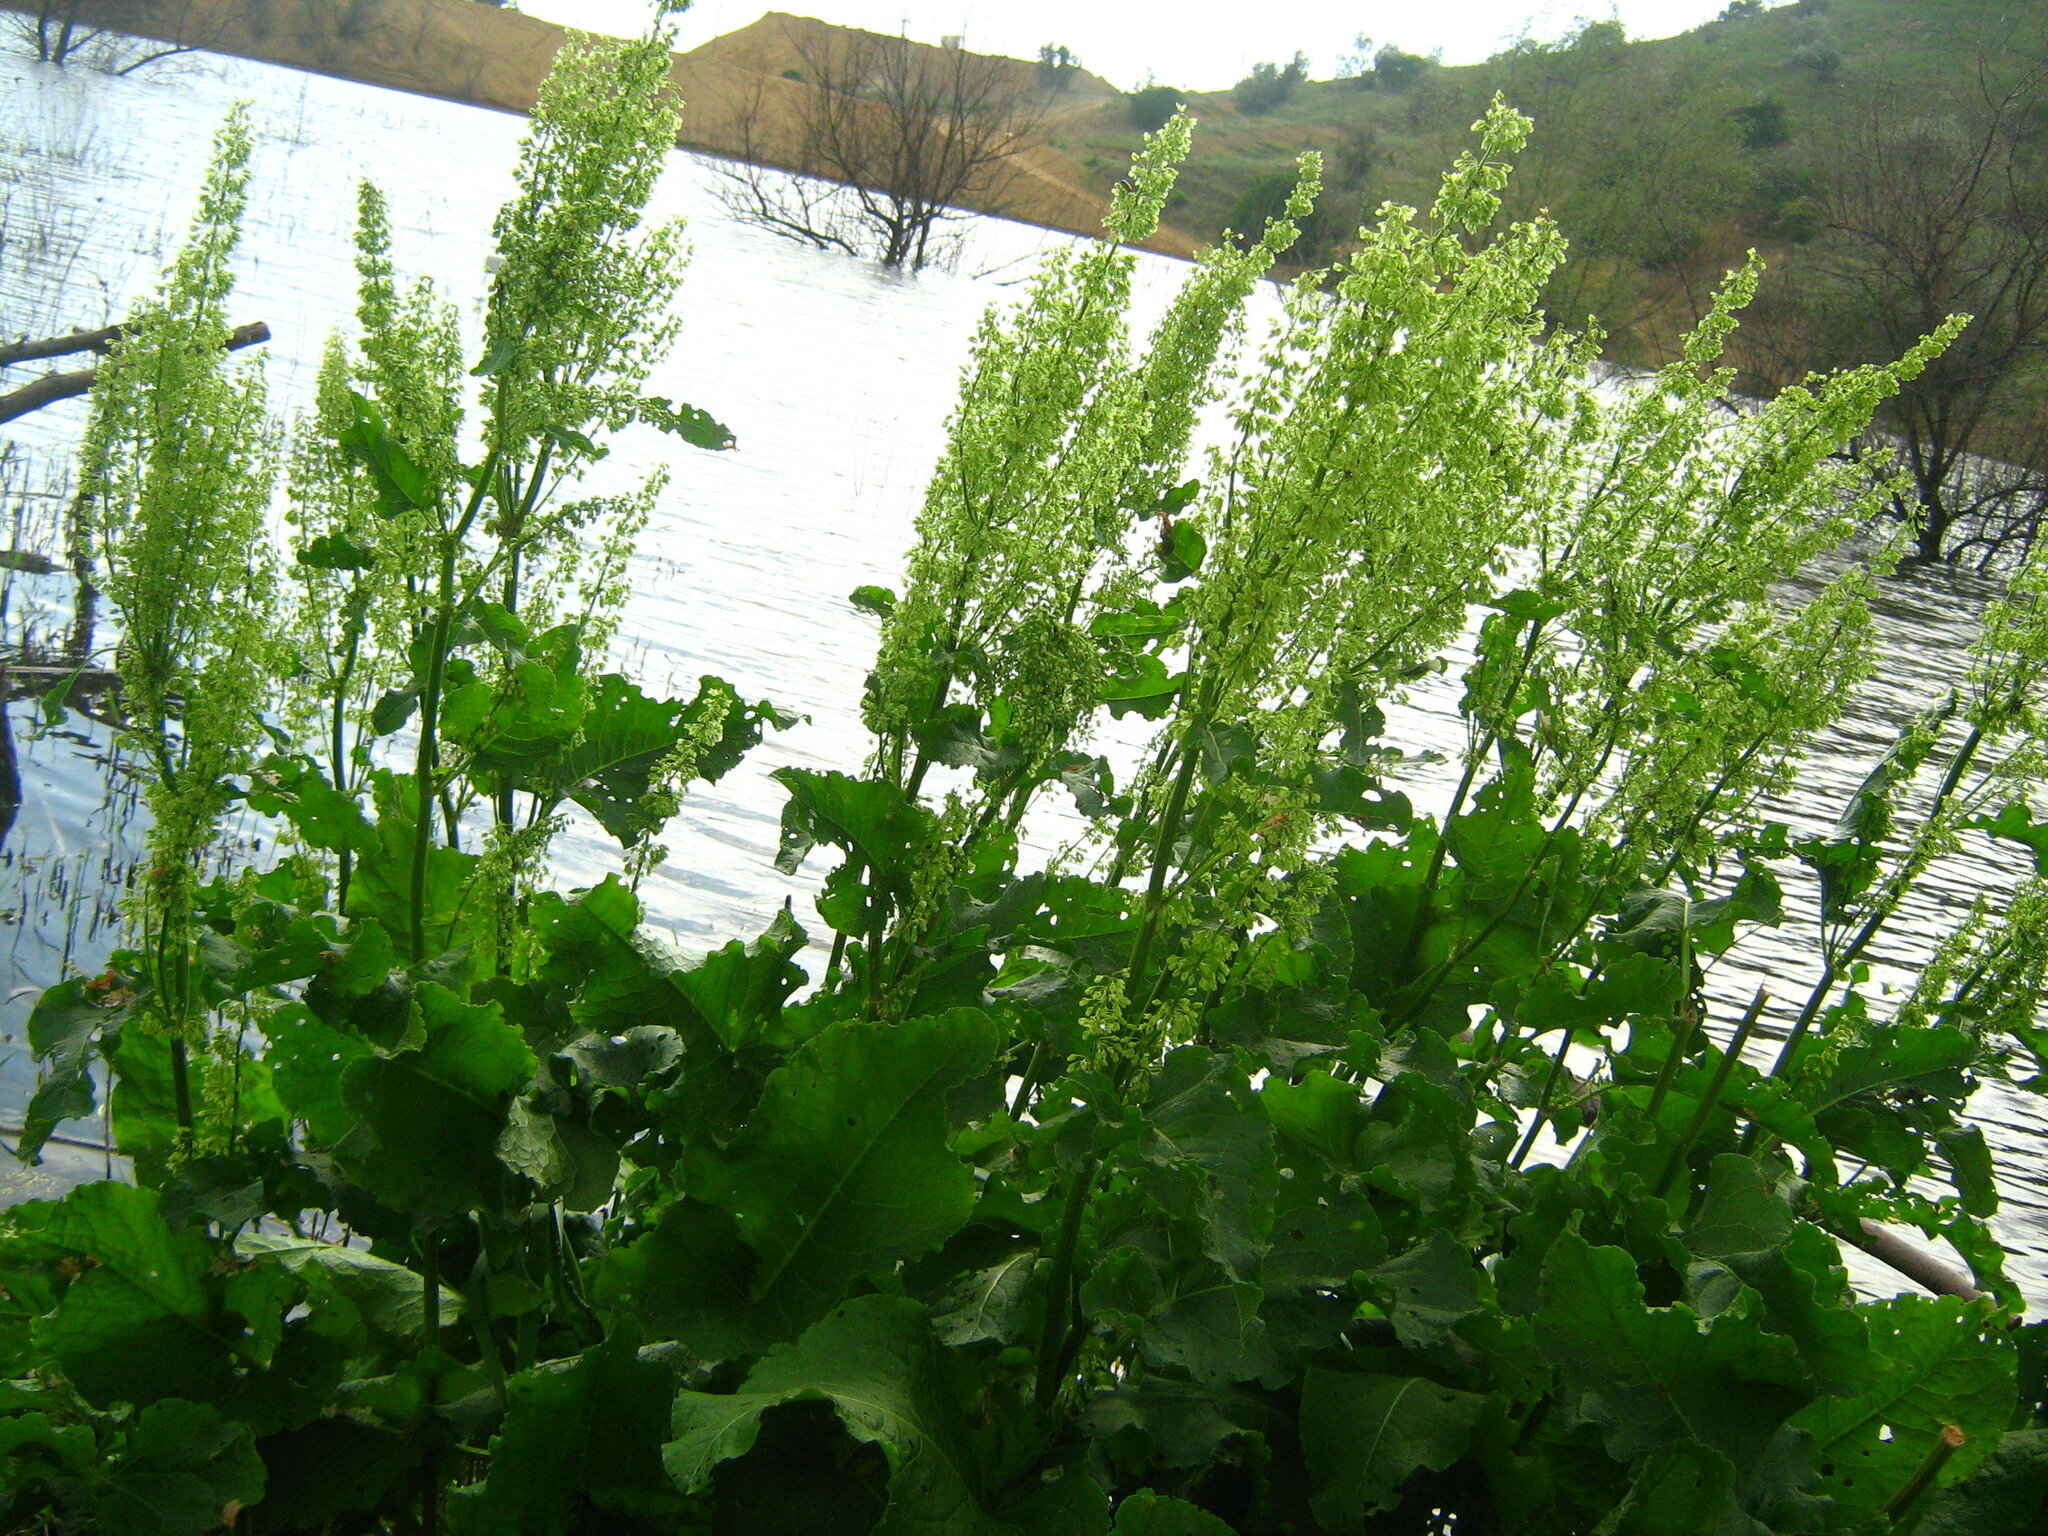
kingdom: Plantae
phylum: Tracheophyta
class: Magnoliopsida
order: Caryophyllales
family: Polygonaceae
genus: Rumex
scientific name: Rumex confertus
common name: Russian dock
